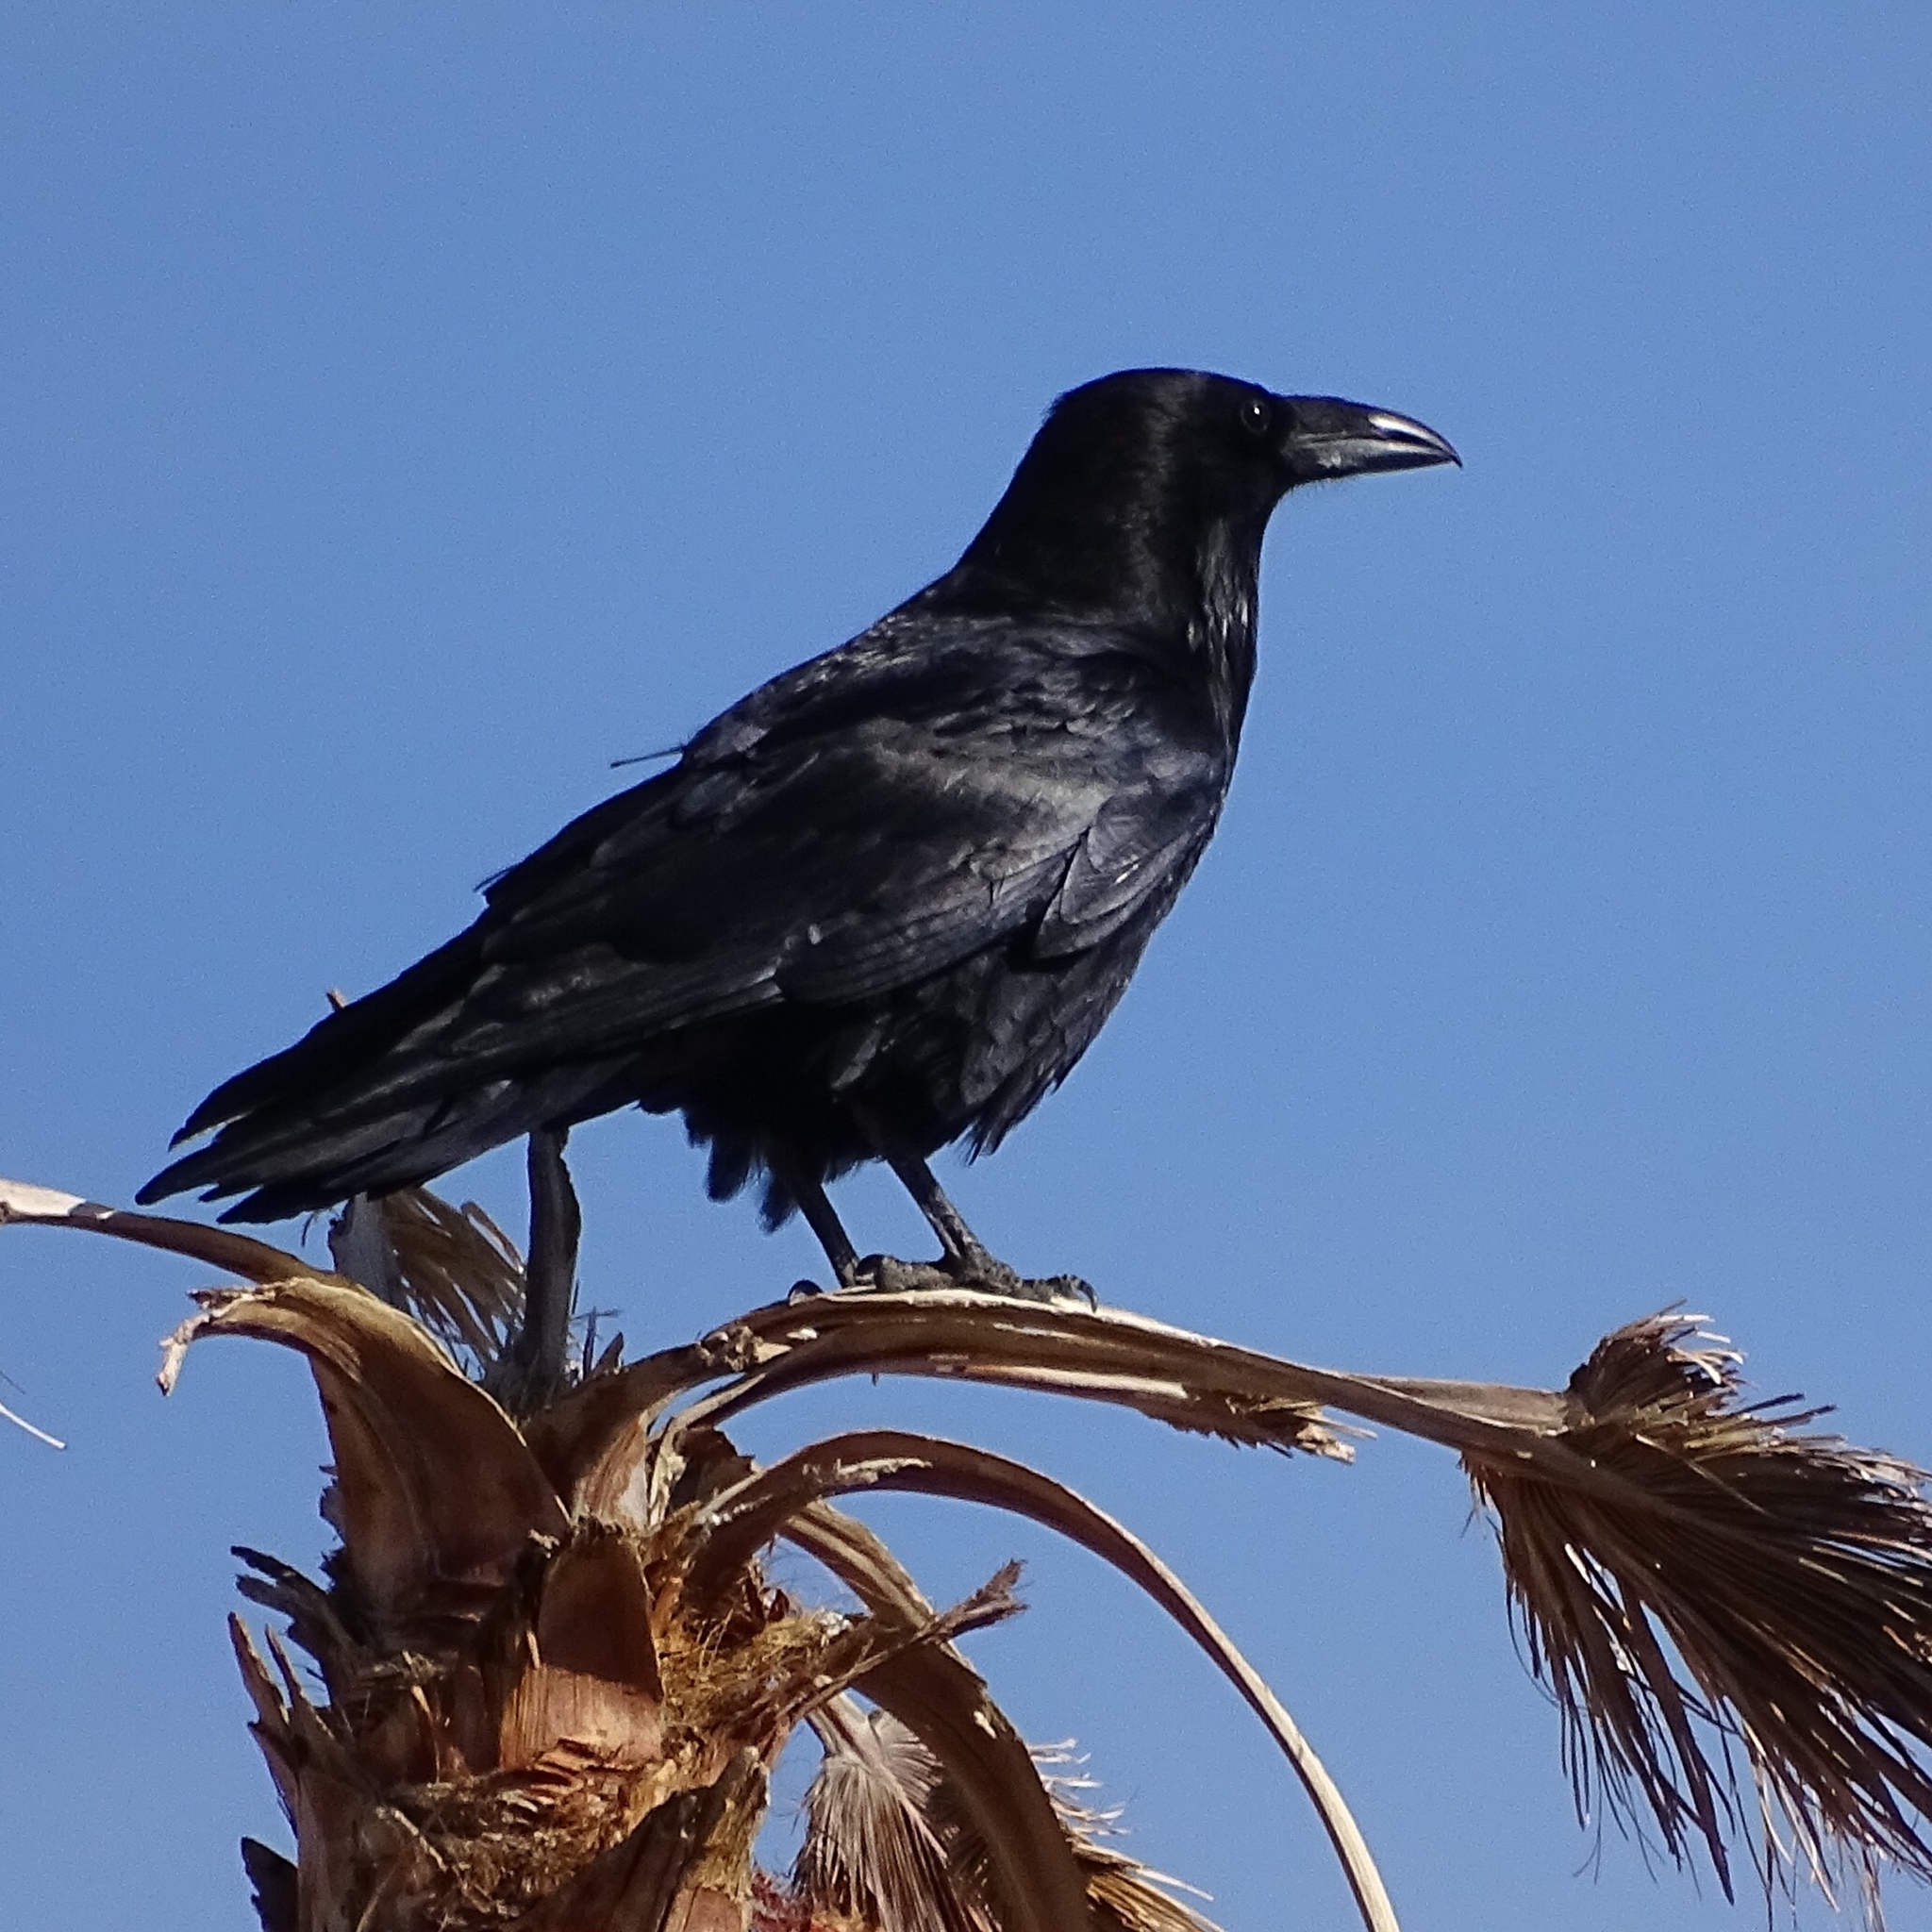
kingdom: Animalia
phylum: Chordata
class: Aves
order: Passeriformes
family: Corvidae
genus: Corvus
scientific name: Corvus corax
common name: Common raven
